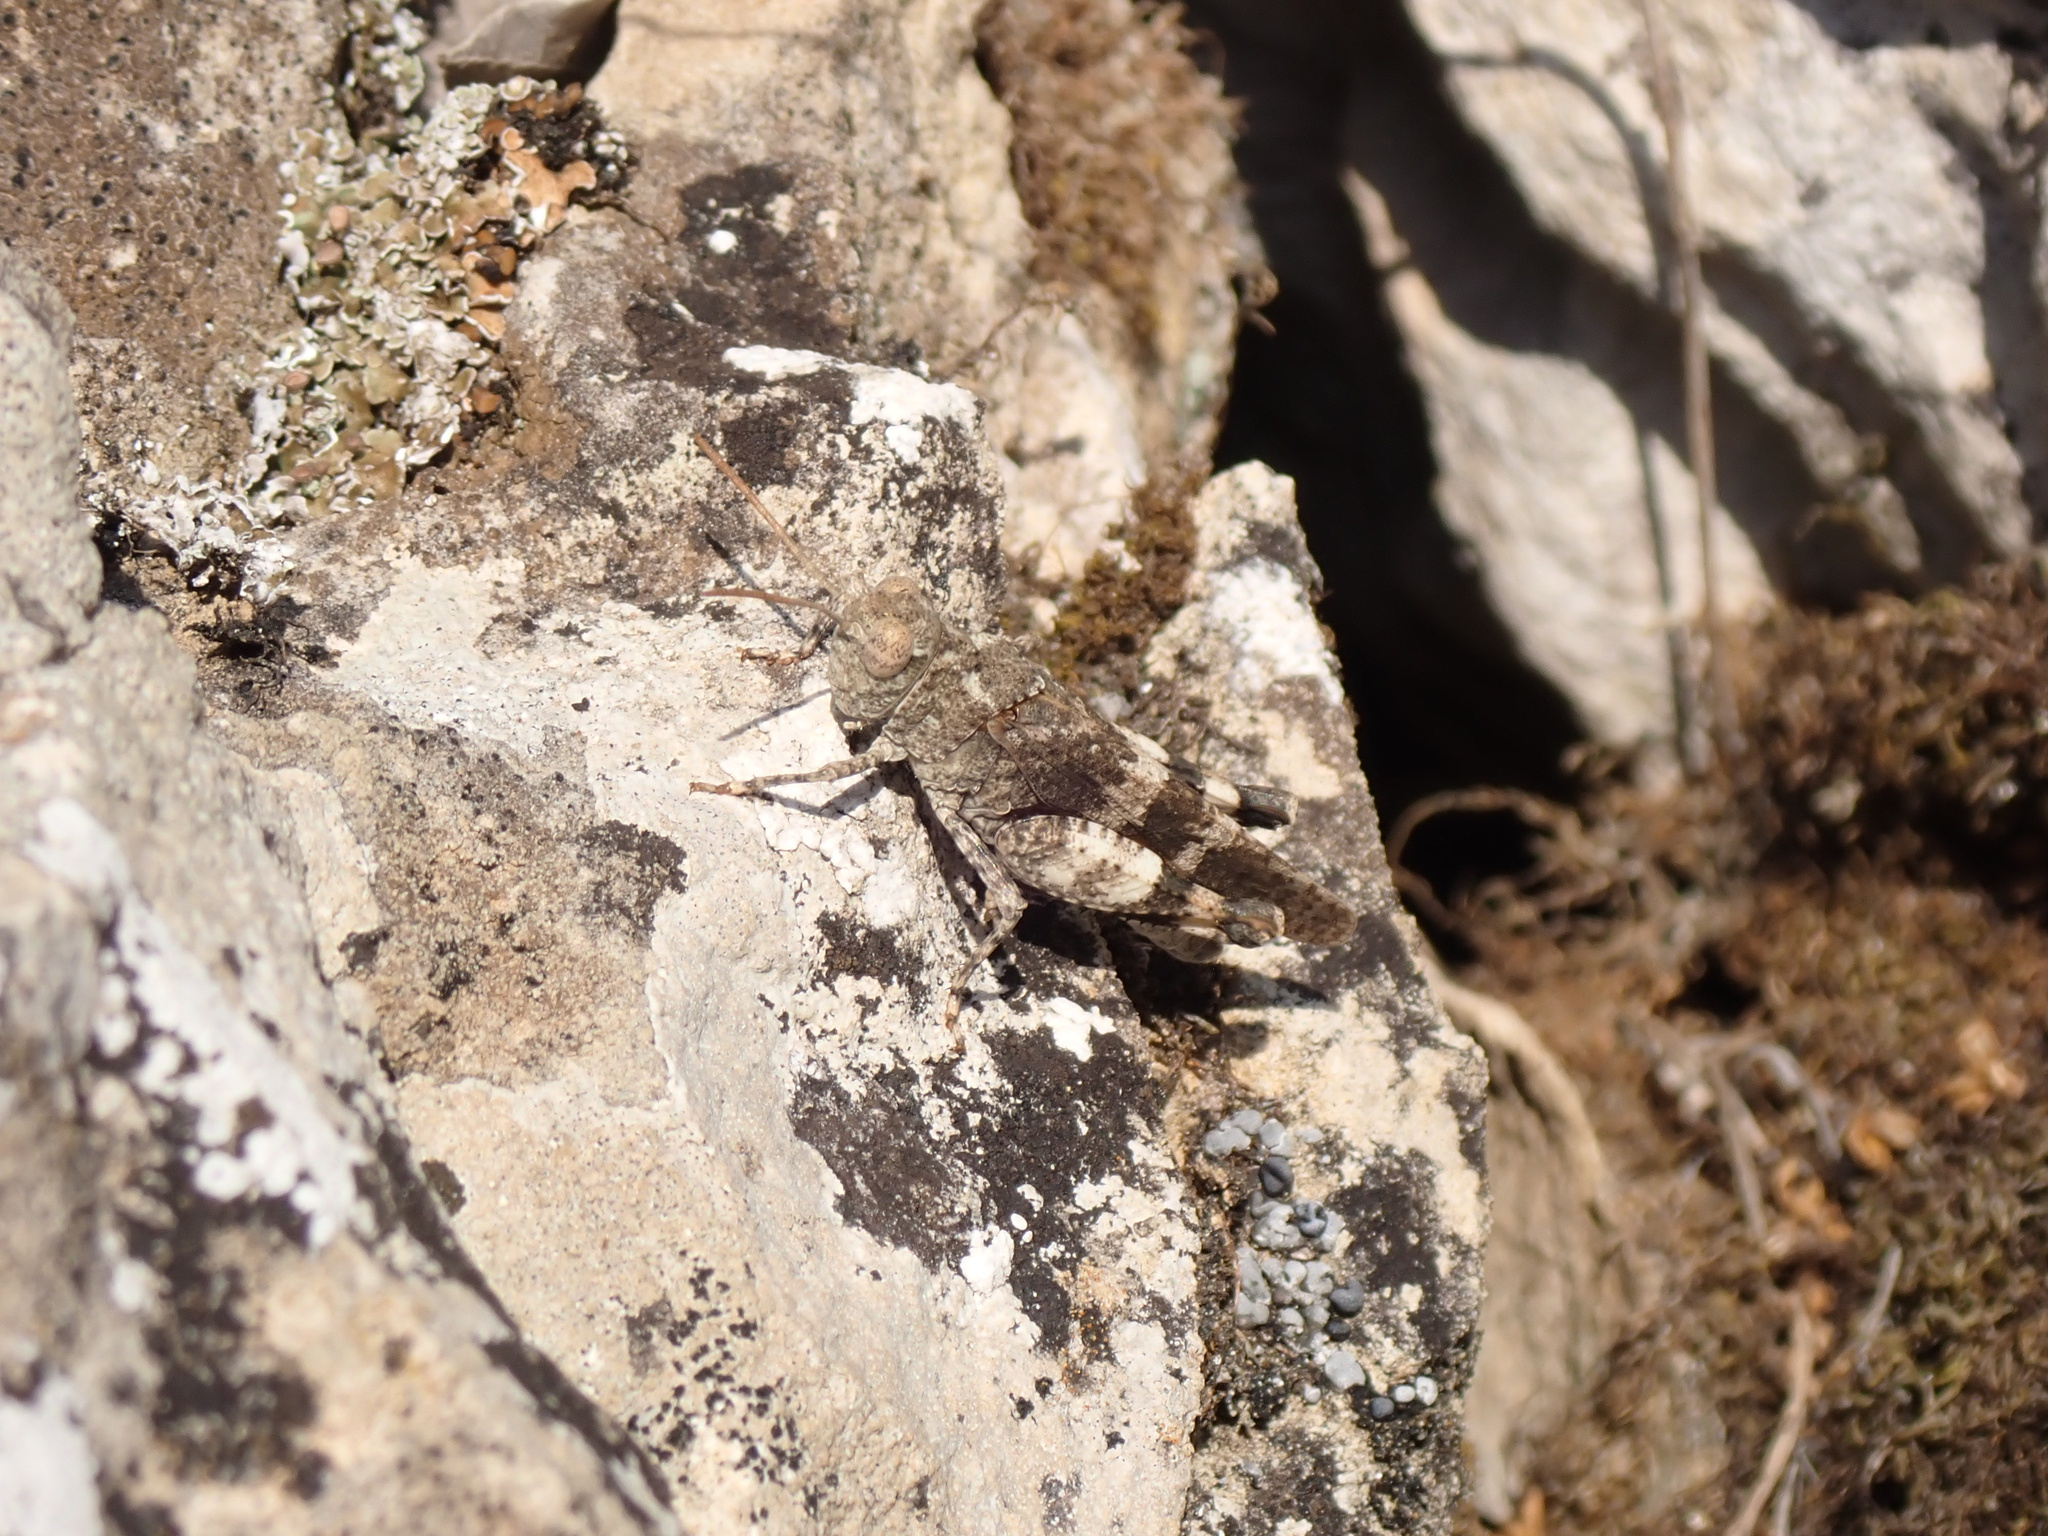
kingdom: Animalia
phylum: Arthropoda
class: Insecta
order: Orthoptera
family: Acrididae
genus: Oedipoda
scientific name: Oedipoda germanica
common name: Red band-winged grasshopper
